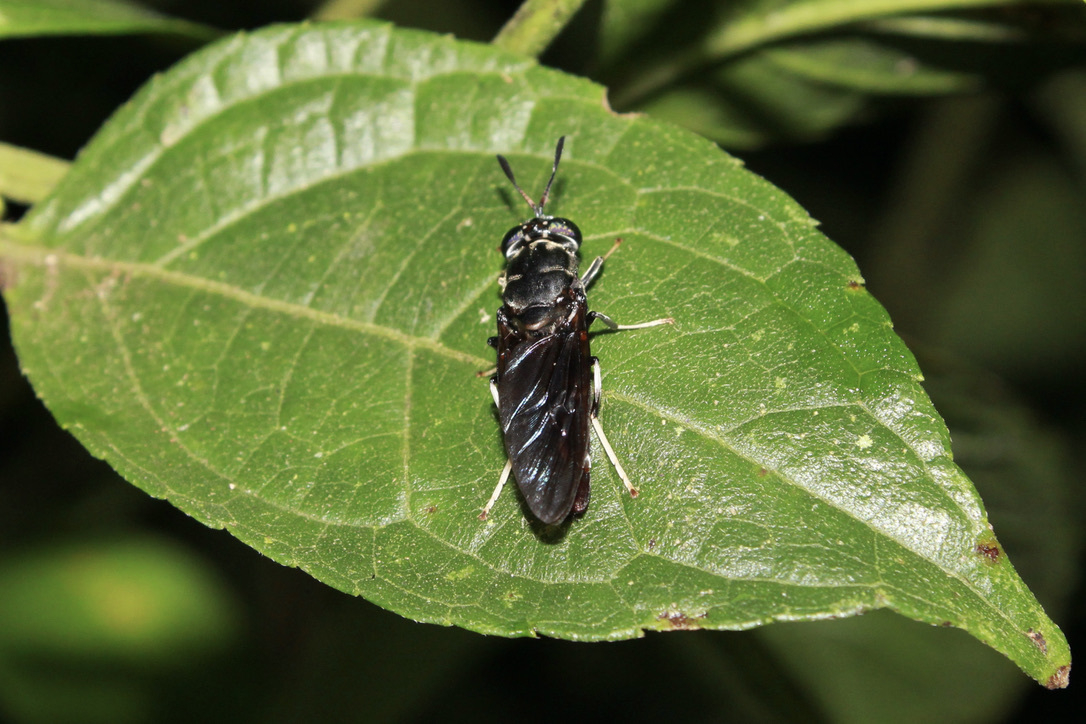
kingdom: Animalia
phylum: Arthropoda
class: Insecta
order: Diptera
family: Stratiomyidae
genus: Hermetia
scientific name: Hermetia illucens
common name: Black soldier fly
